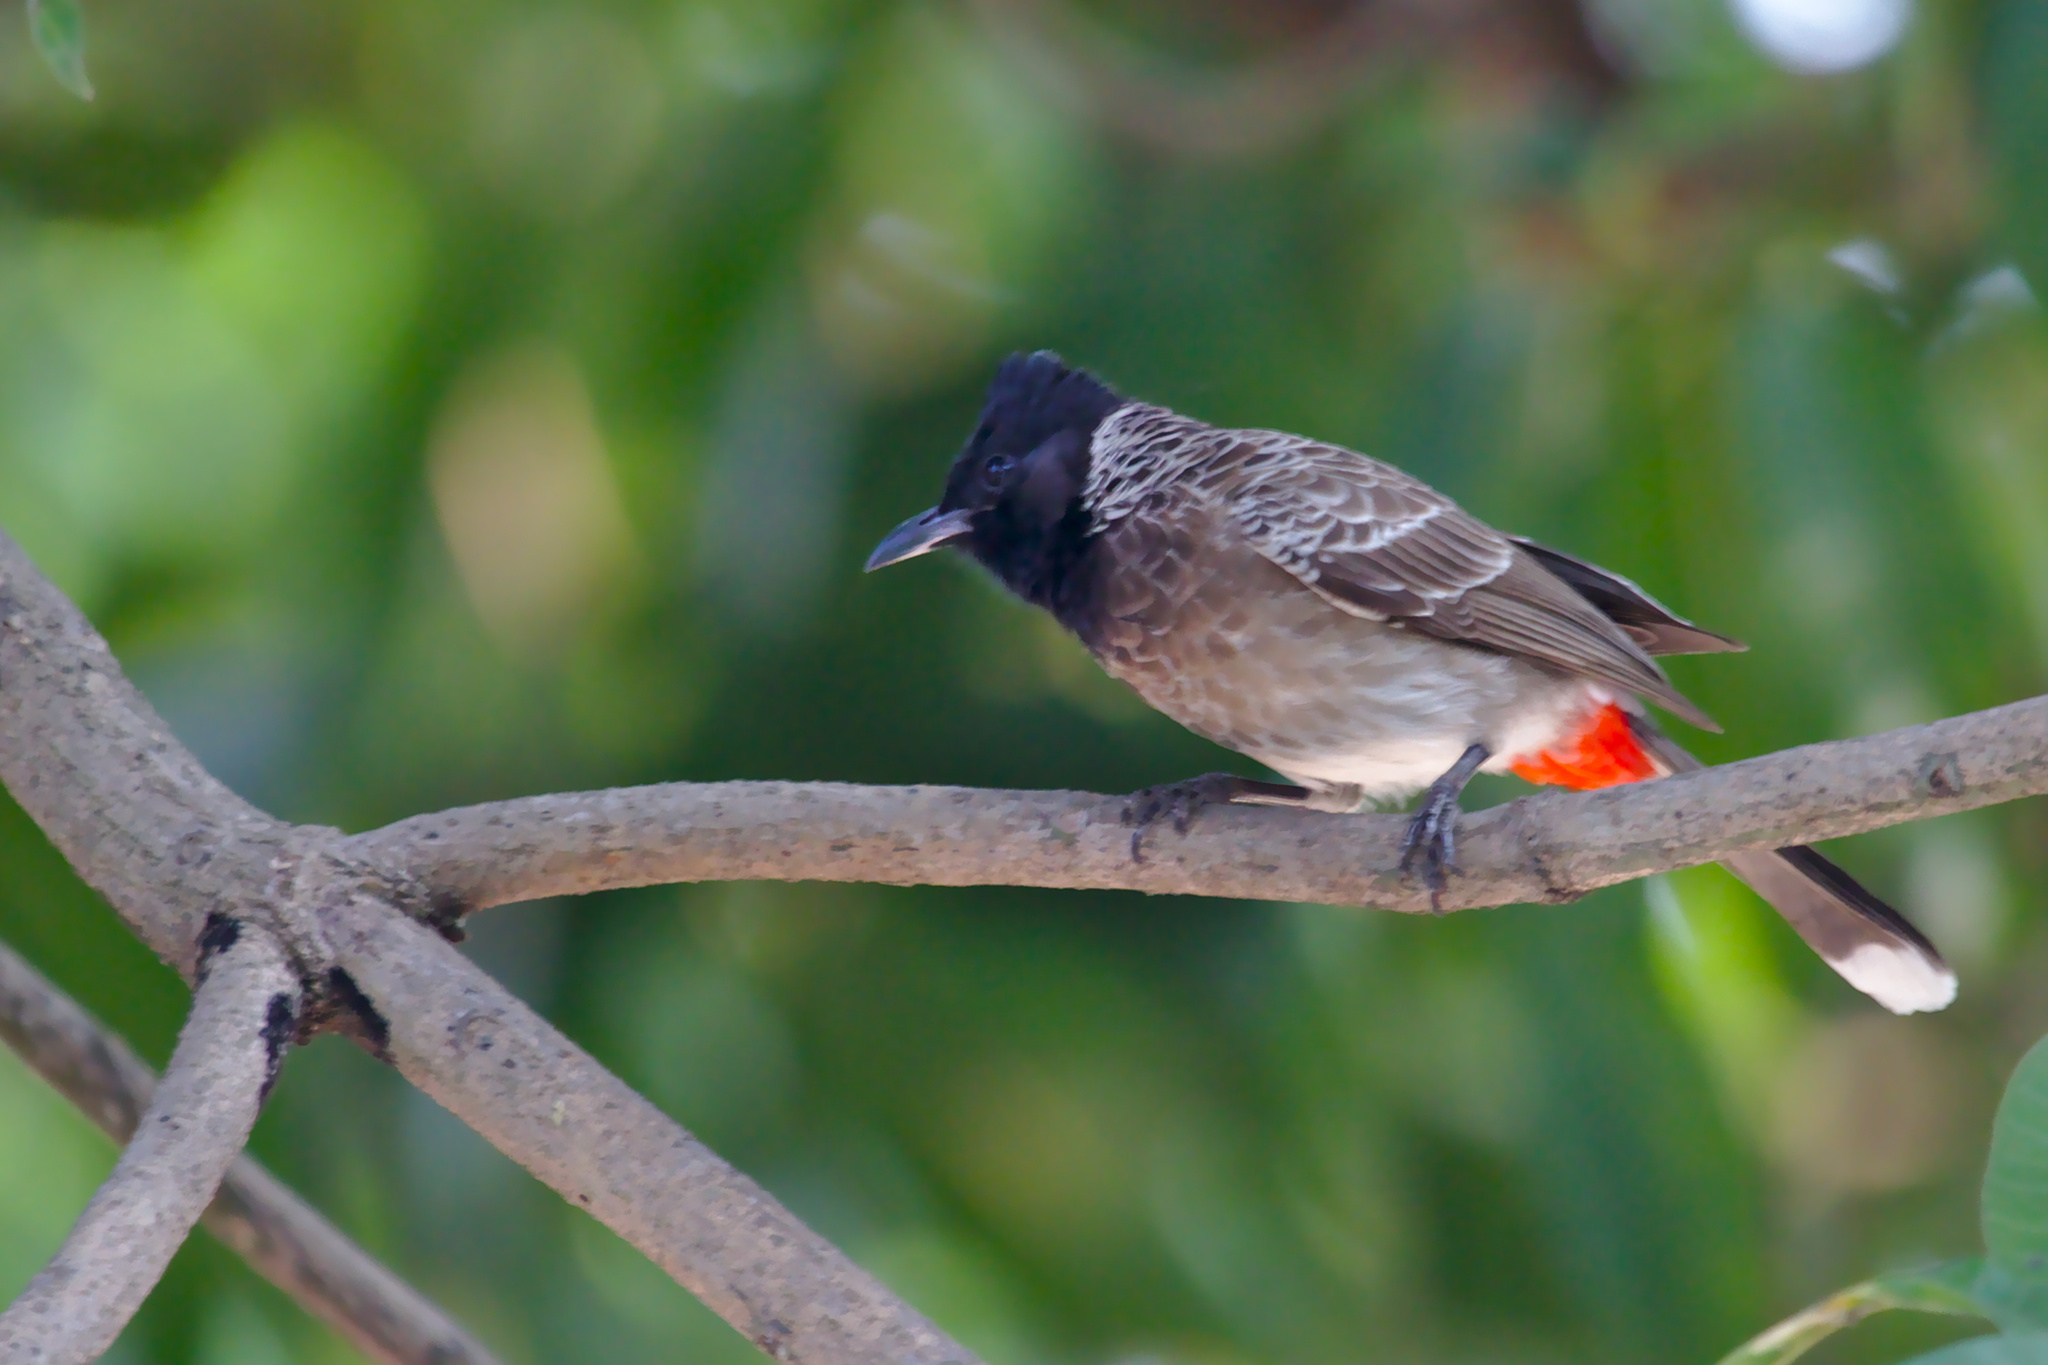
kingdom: Animalia
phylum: Chordata
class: Aves
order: Passeriformes
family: Pycnonotidae
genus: Pycnonotus
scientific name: Pycnonotus cafer
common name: Red-vented bulbul
